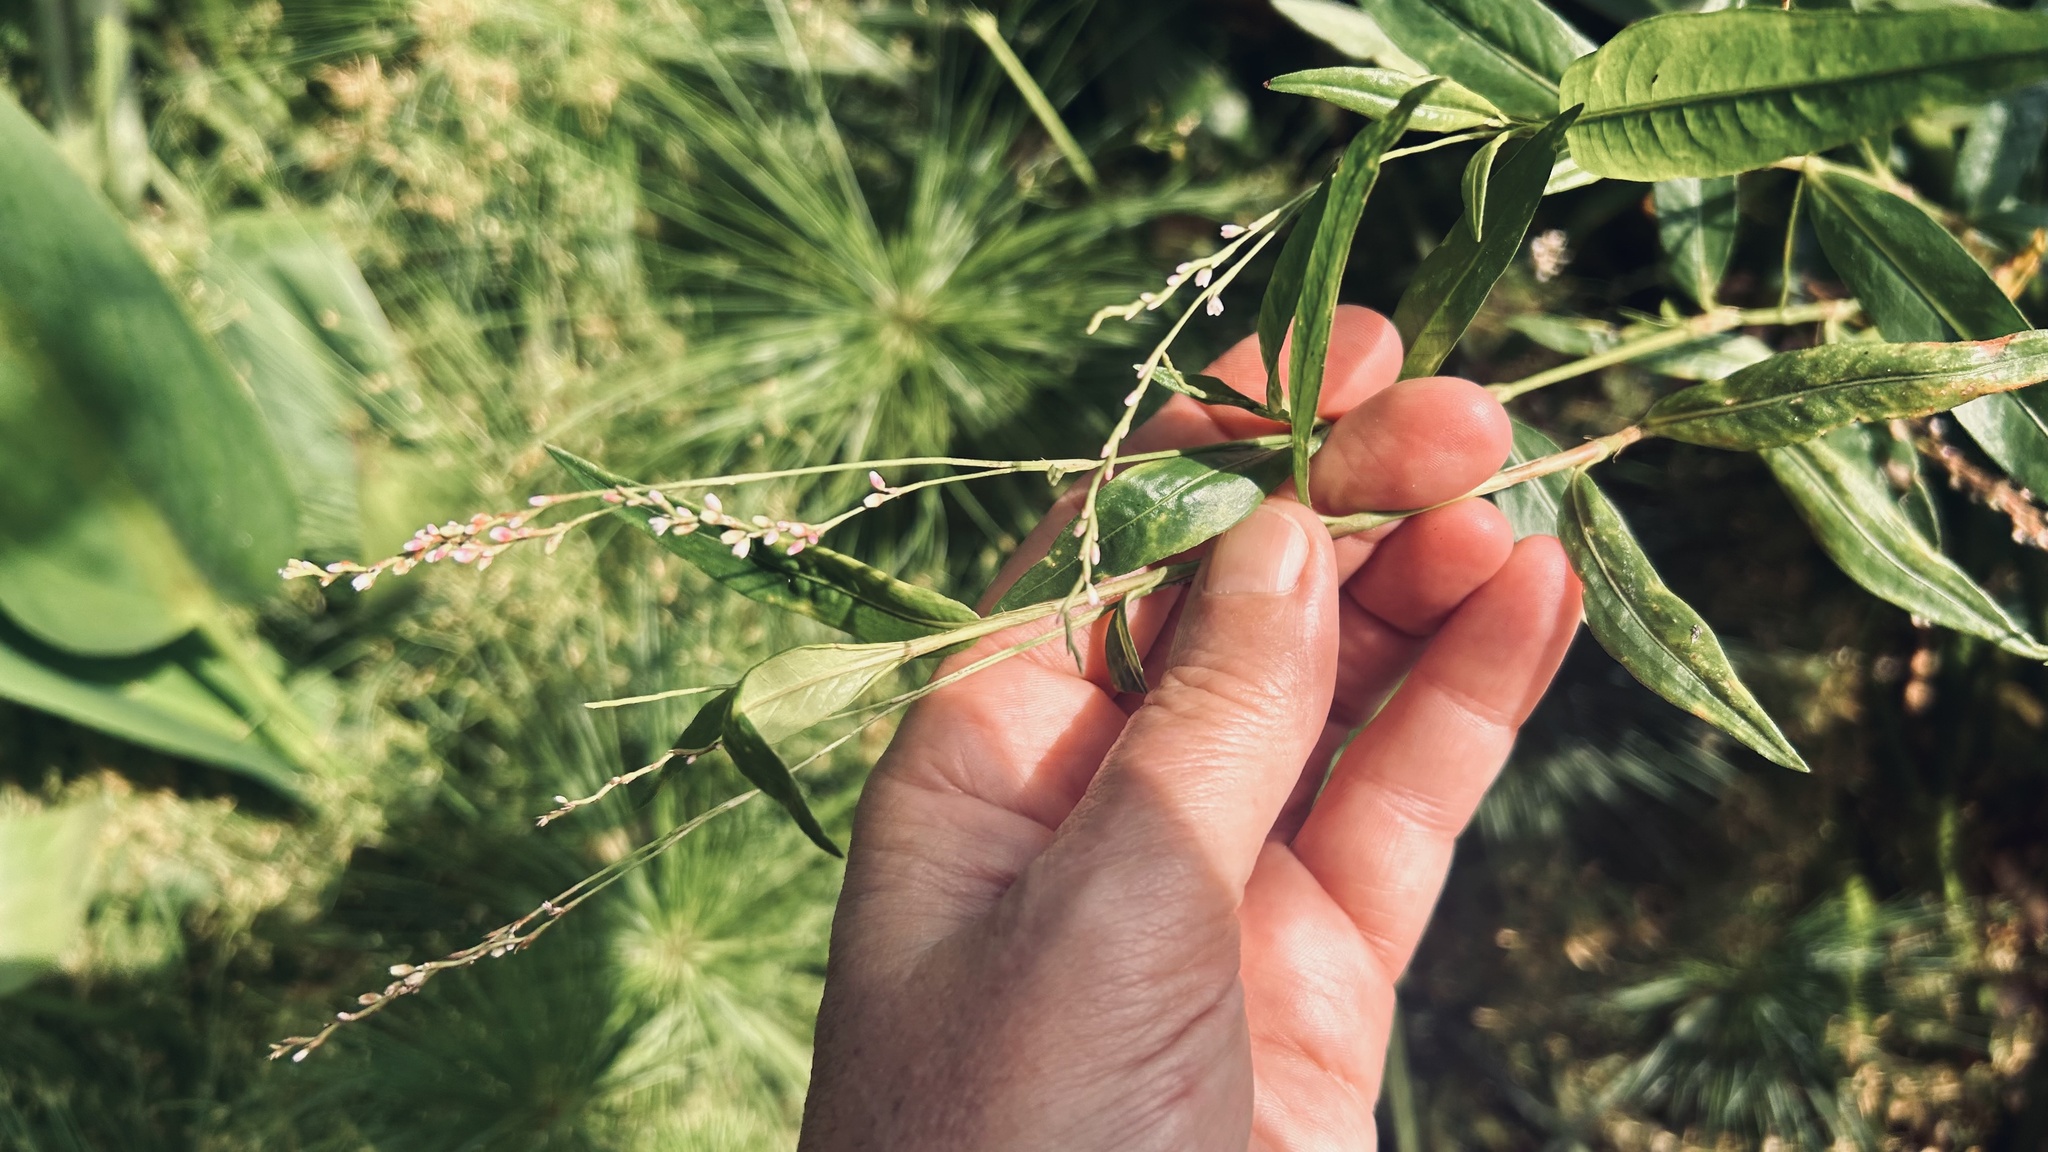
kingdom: Plantae
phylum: Tracheophyta
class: Magnoliopsida
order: Caryophyllales
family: Polygonaceae
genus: Persicaria
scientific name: Persicaria decipiens
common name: Willow-weed
